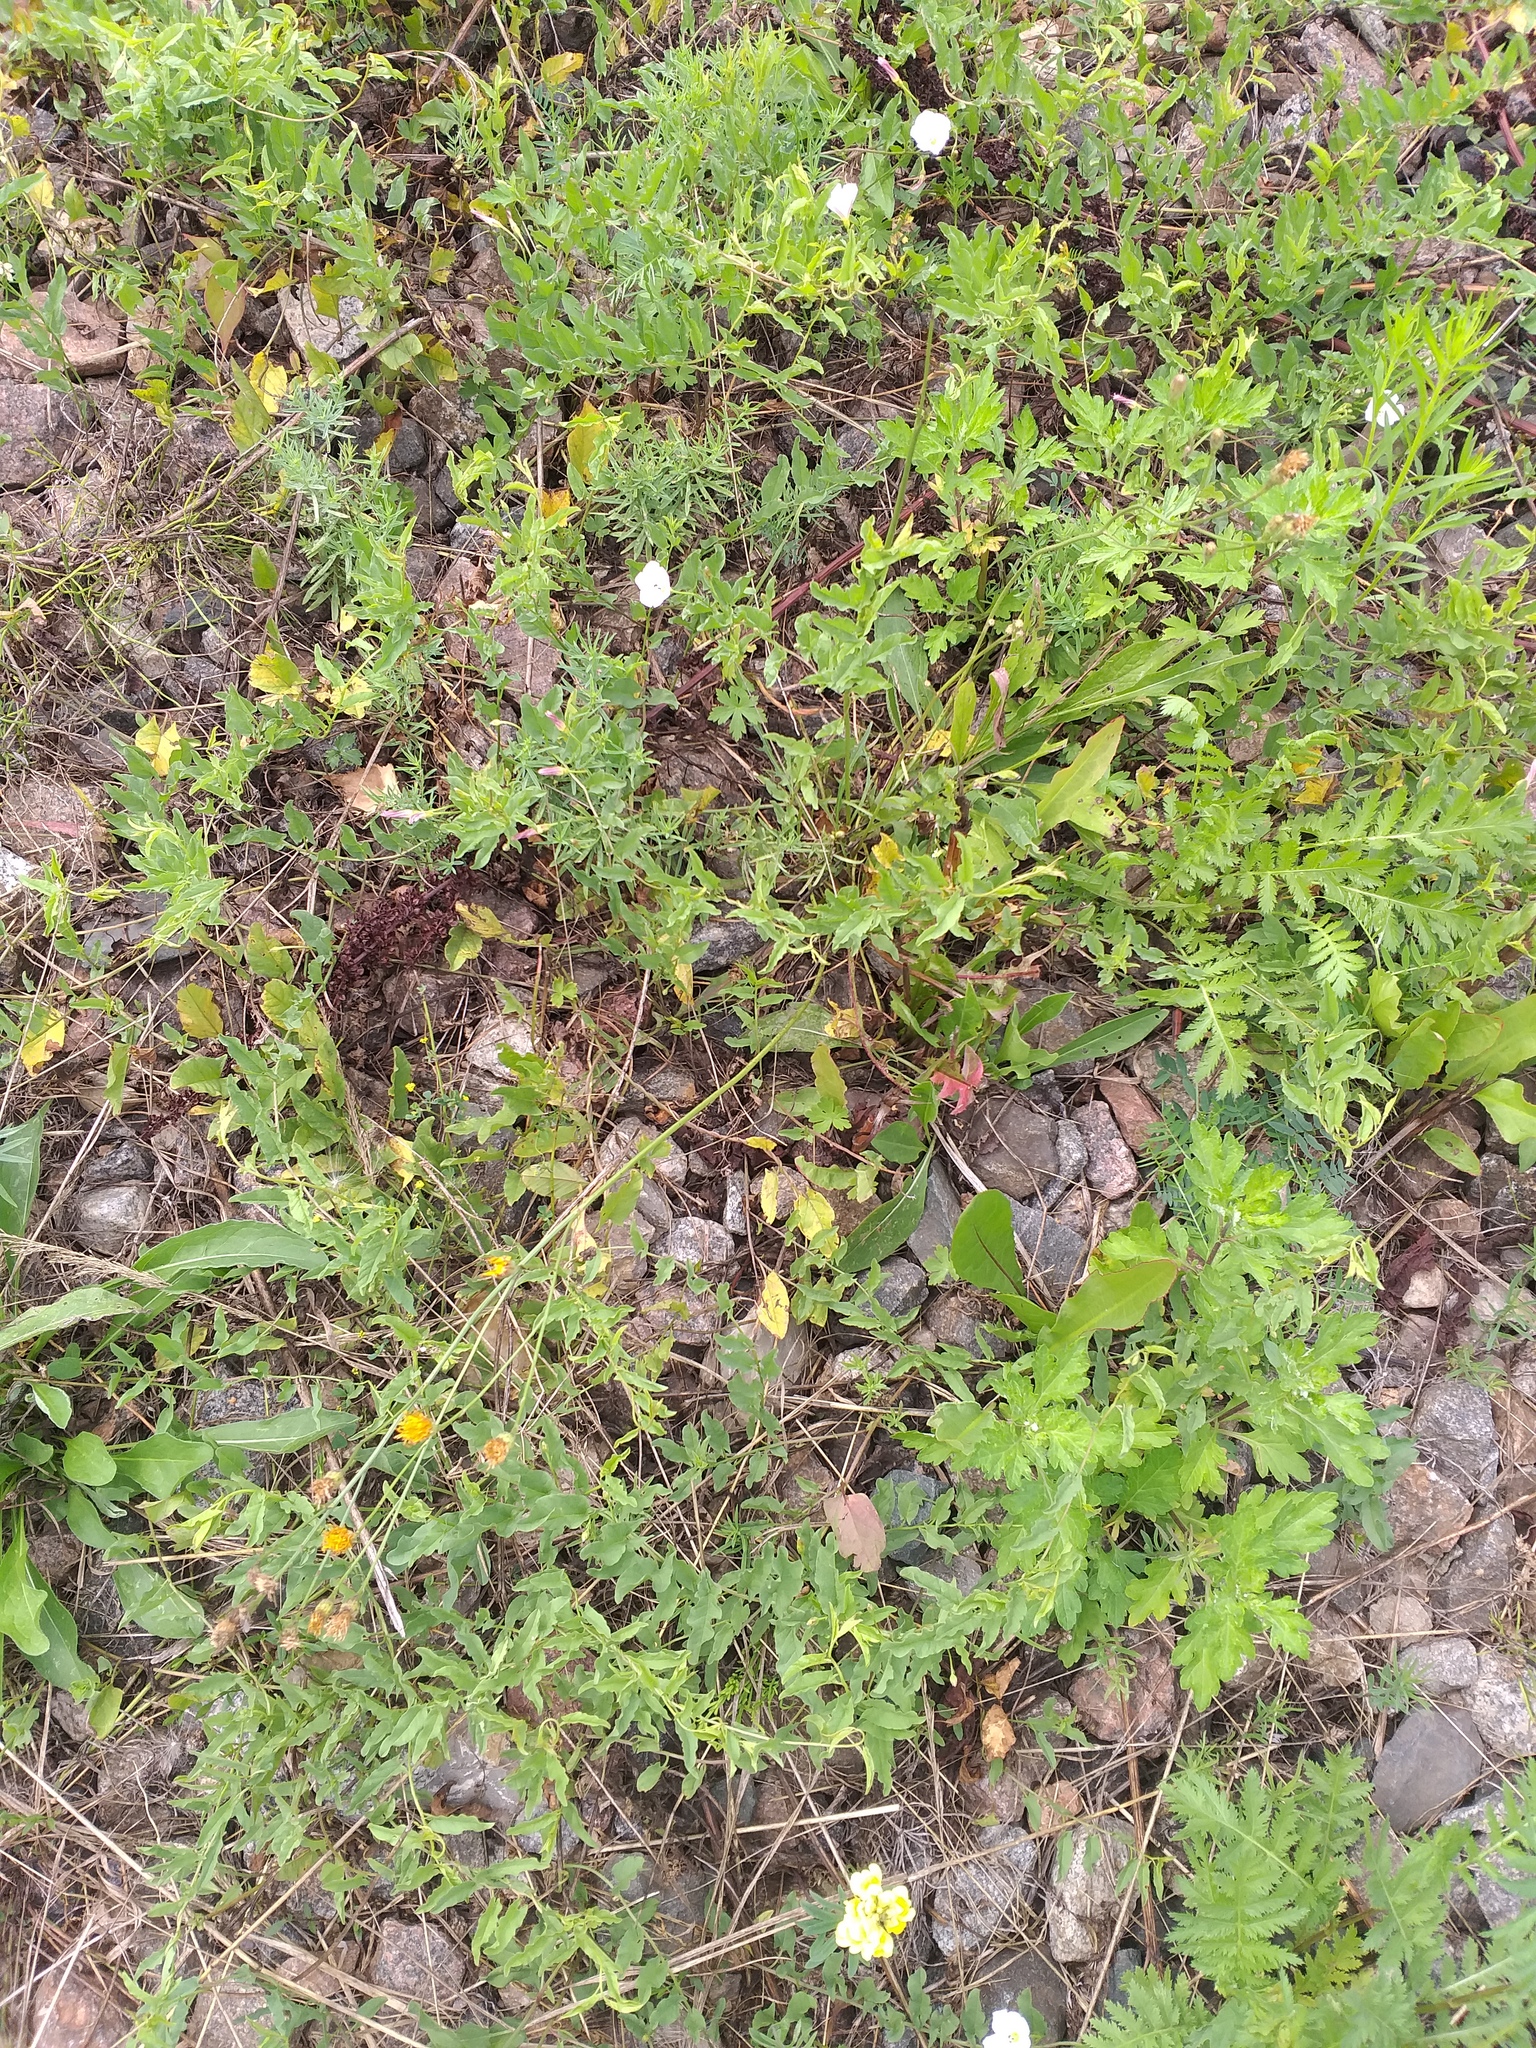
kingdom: Plantae
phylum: Tracheophyta
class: Magnoliopsida
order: Asterales
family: Asteraceae
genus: Scorzoneroides
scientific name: Scorzoneroides autumnalis
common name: Autumn hawkbit
